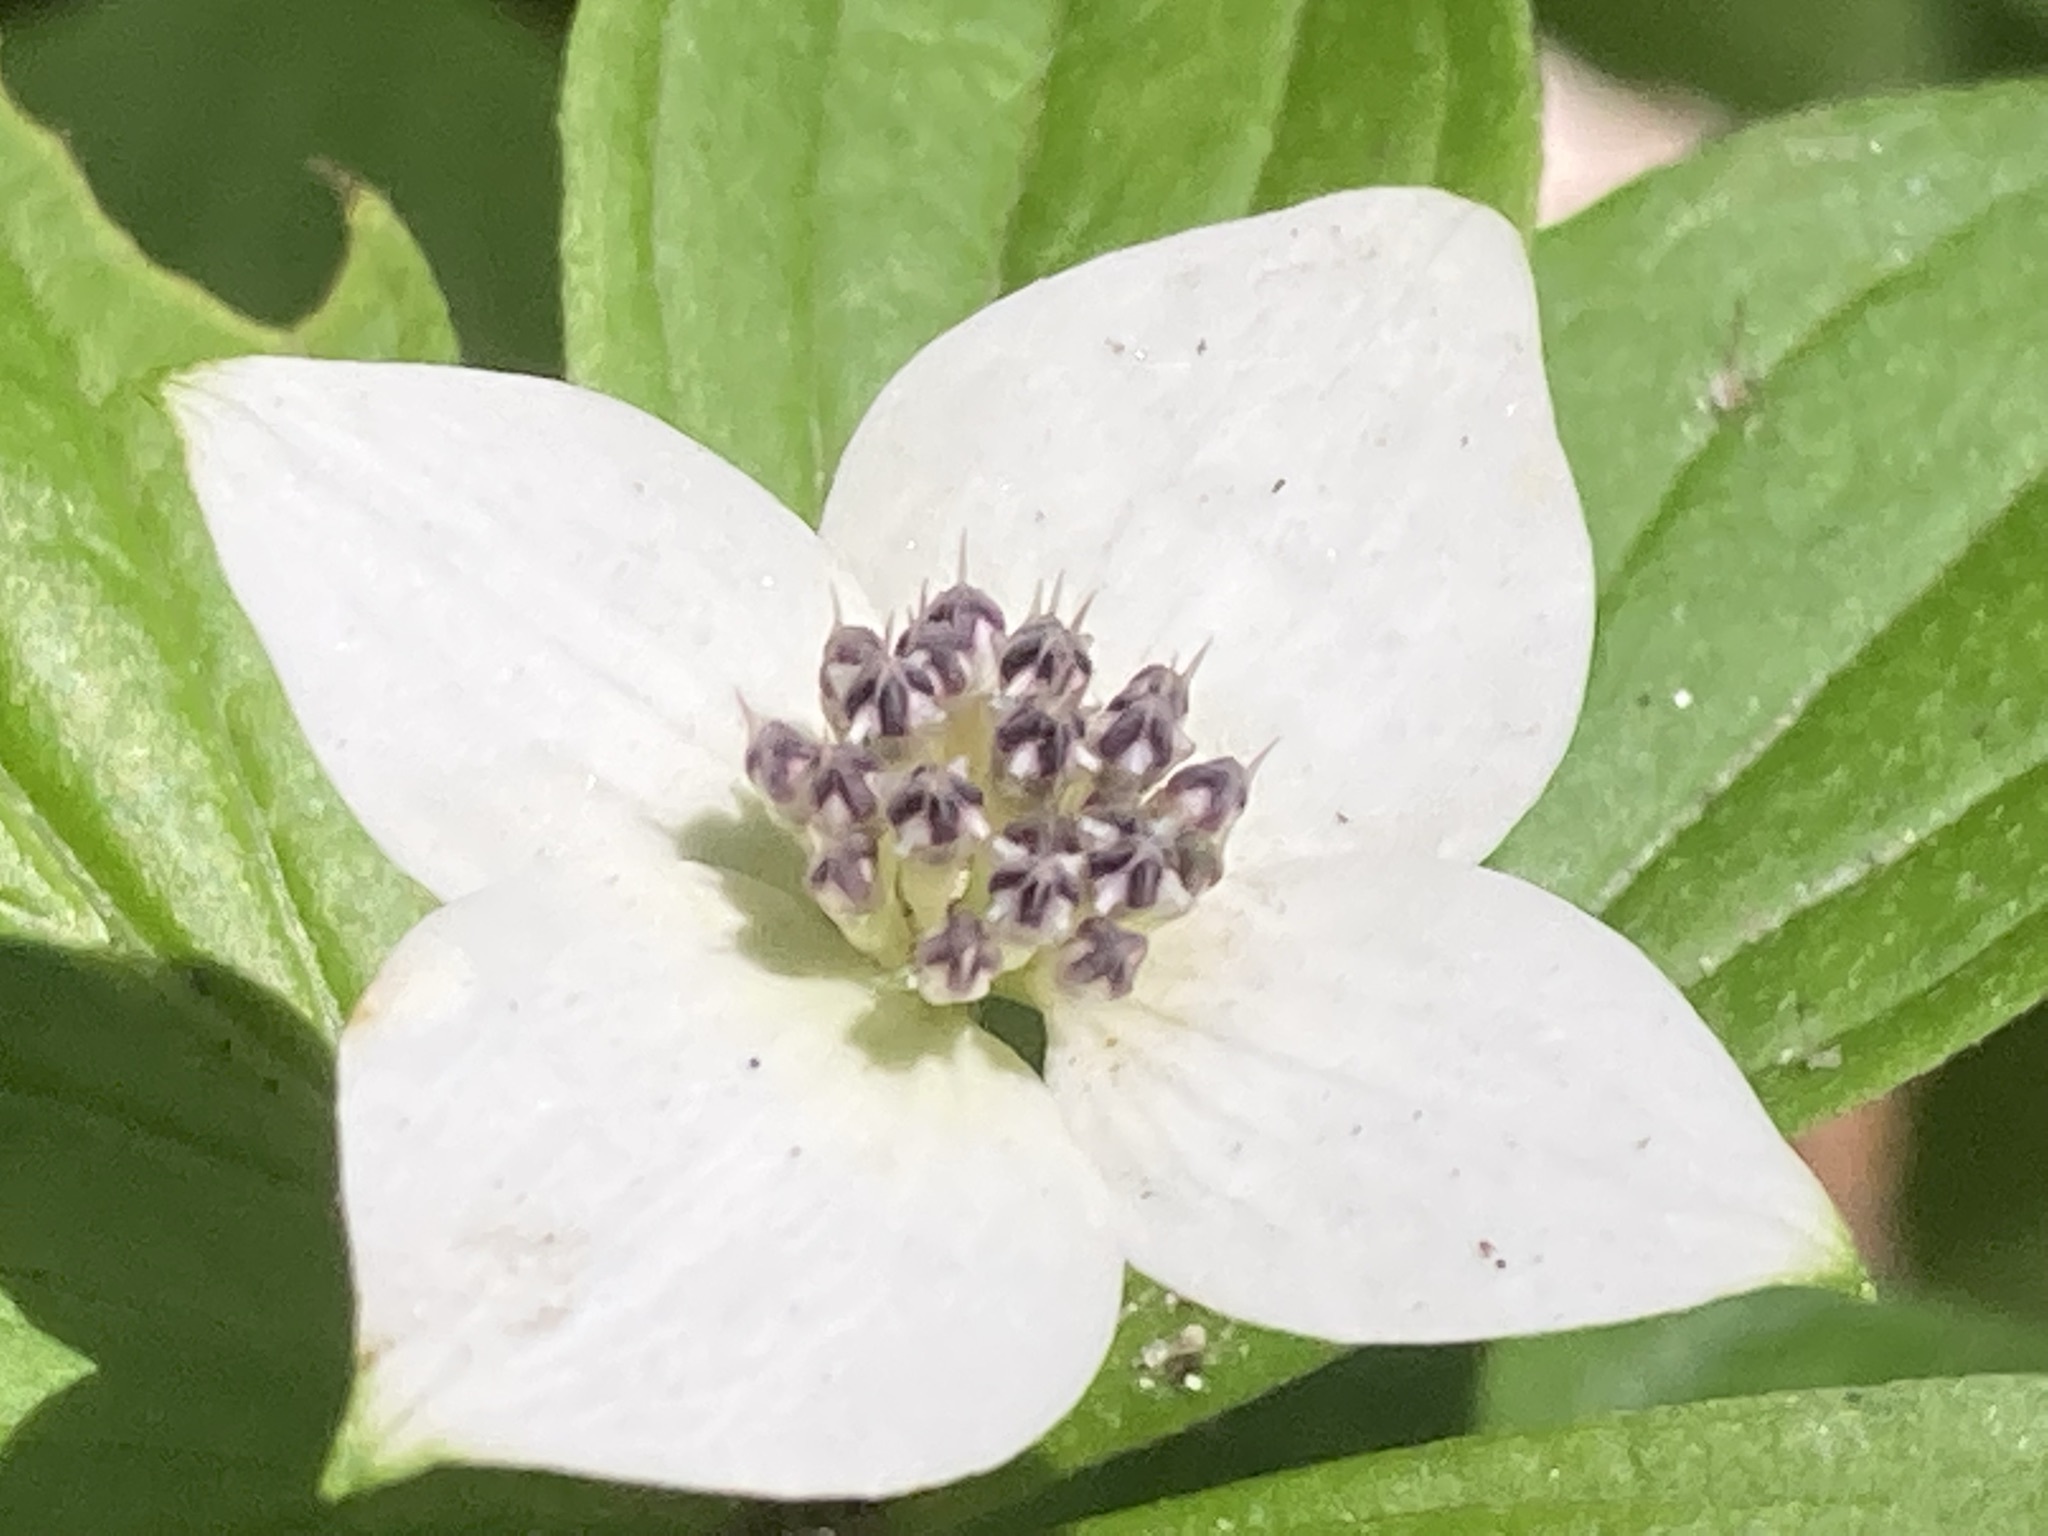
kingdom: Plantae
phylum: Tracheophyta
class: Magnoliopsida
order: Cornales
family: Cornaceae
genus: Cornus
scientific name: Cornus unalaschkensis
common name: Alaska bunchberry
